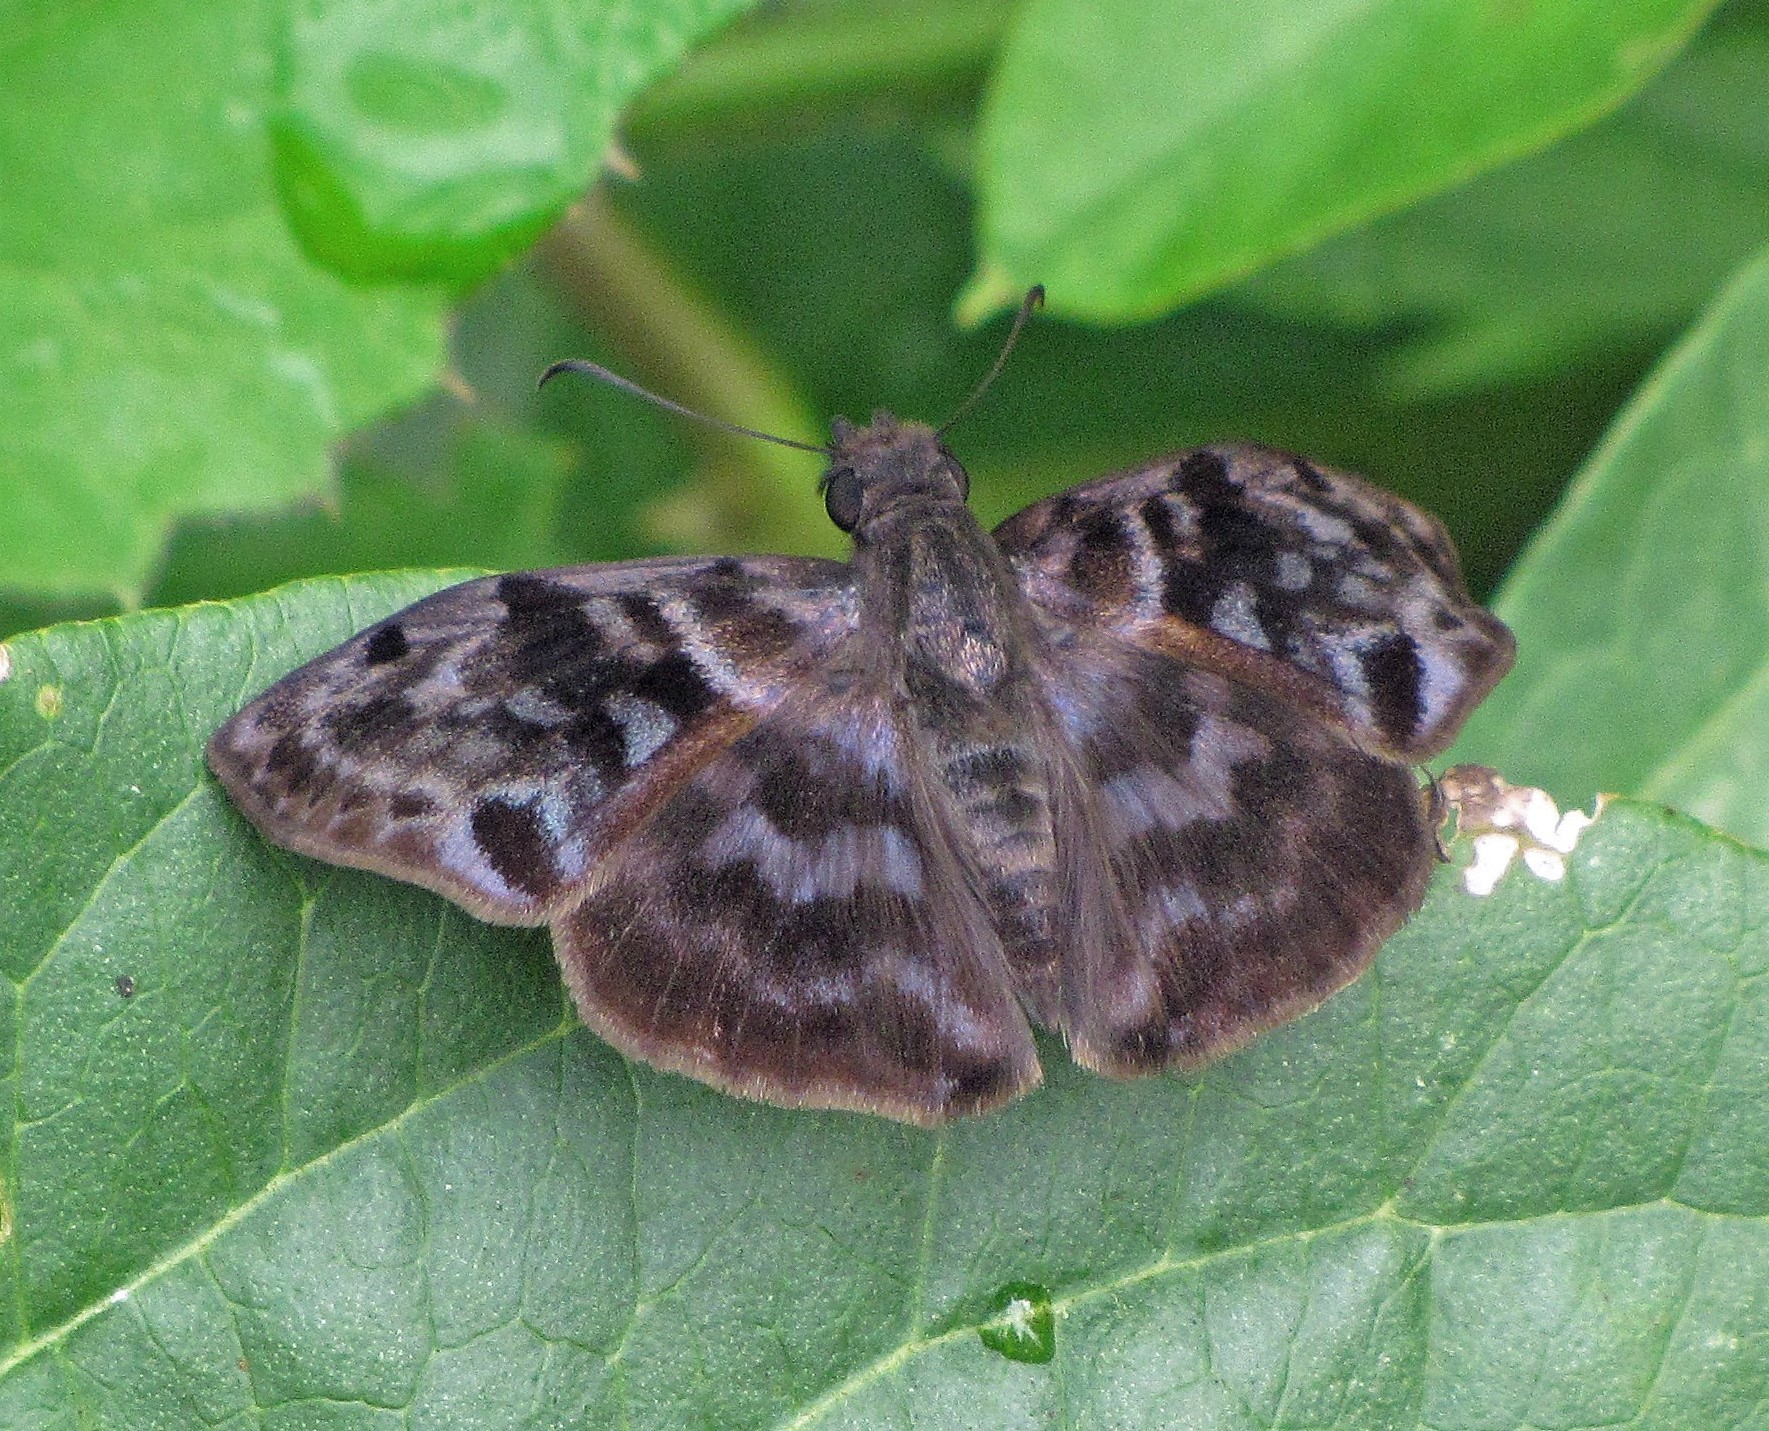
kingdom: Animalia
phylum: Arthropoda
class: Insecta
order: Lepidoptera
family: Hesperiidae
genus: Ebrietas
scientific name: Ebrietas anacreon
